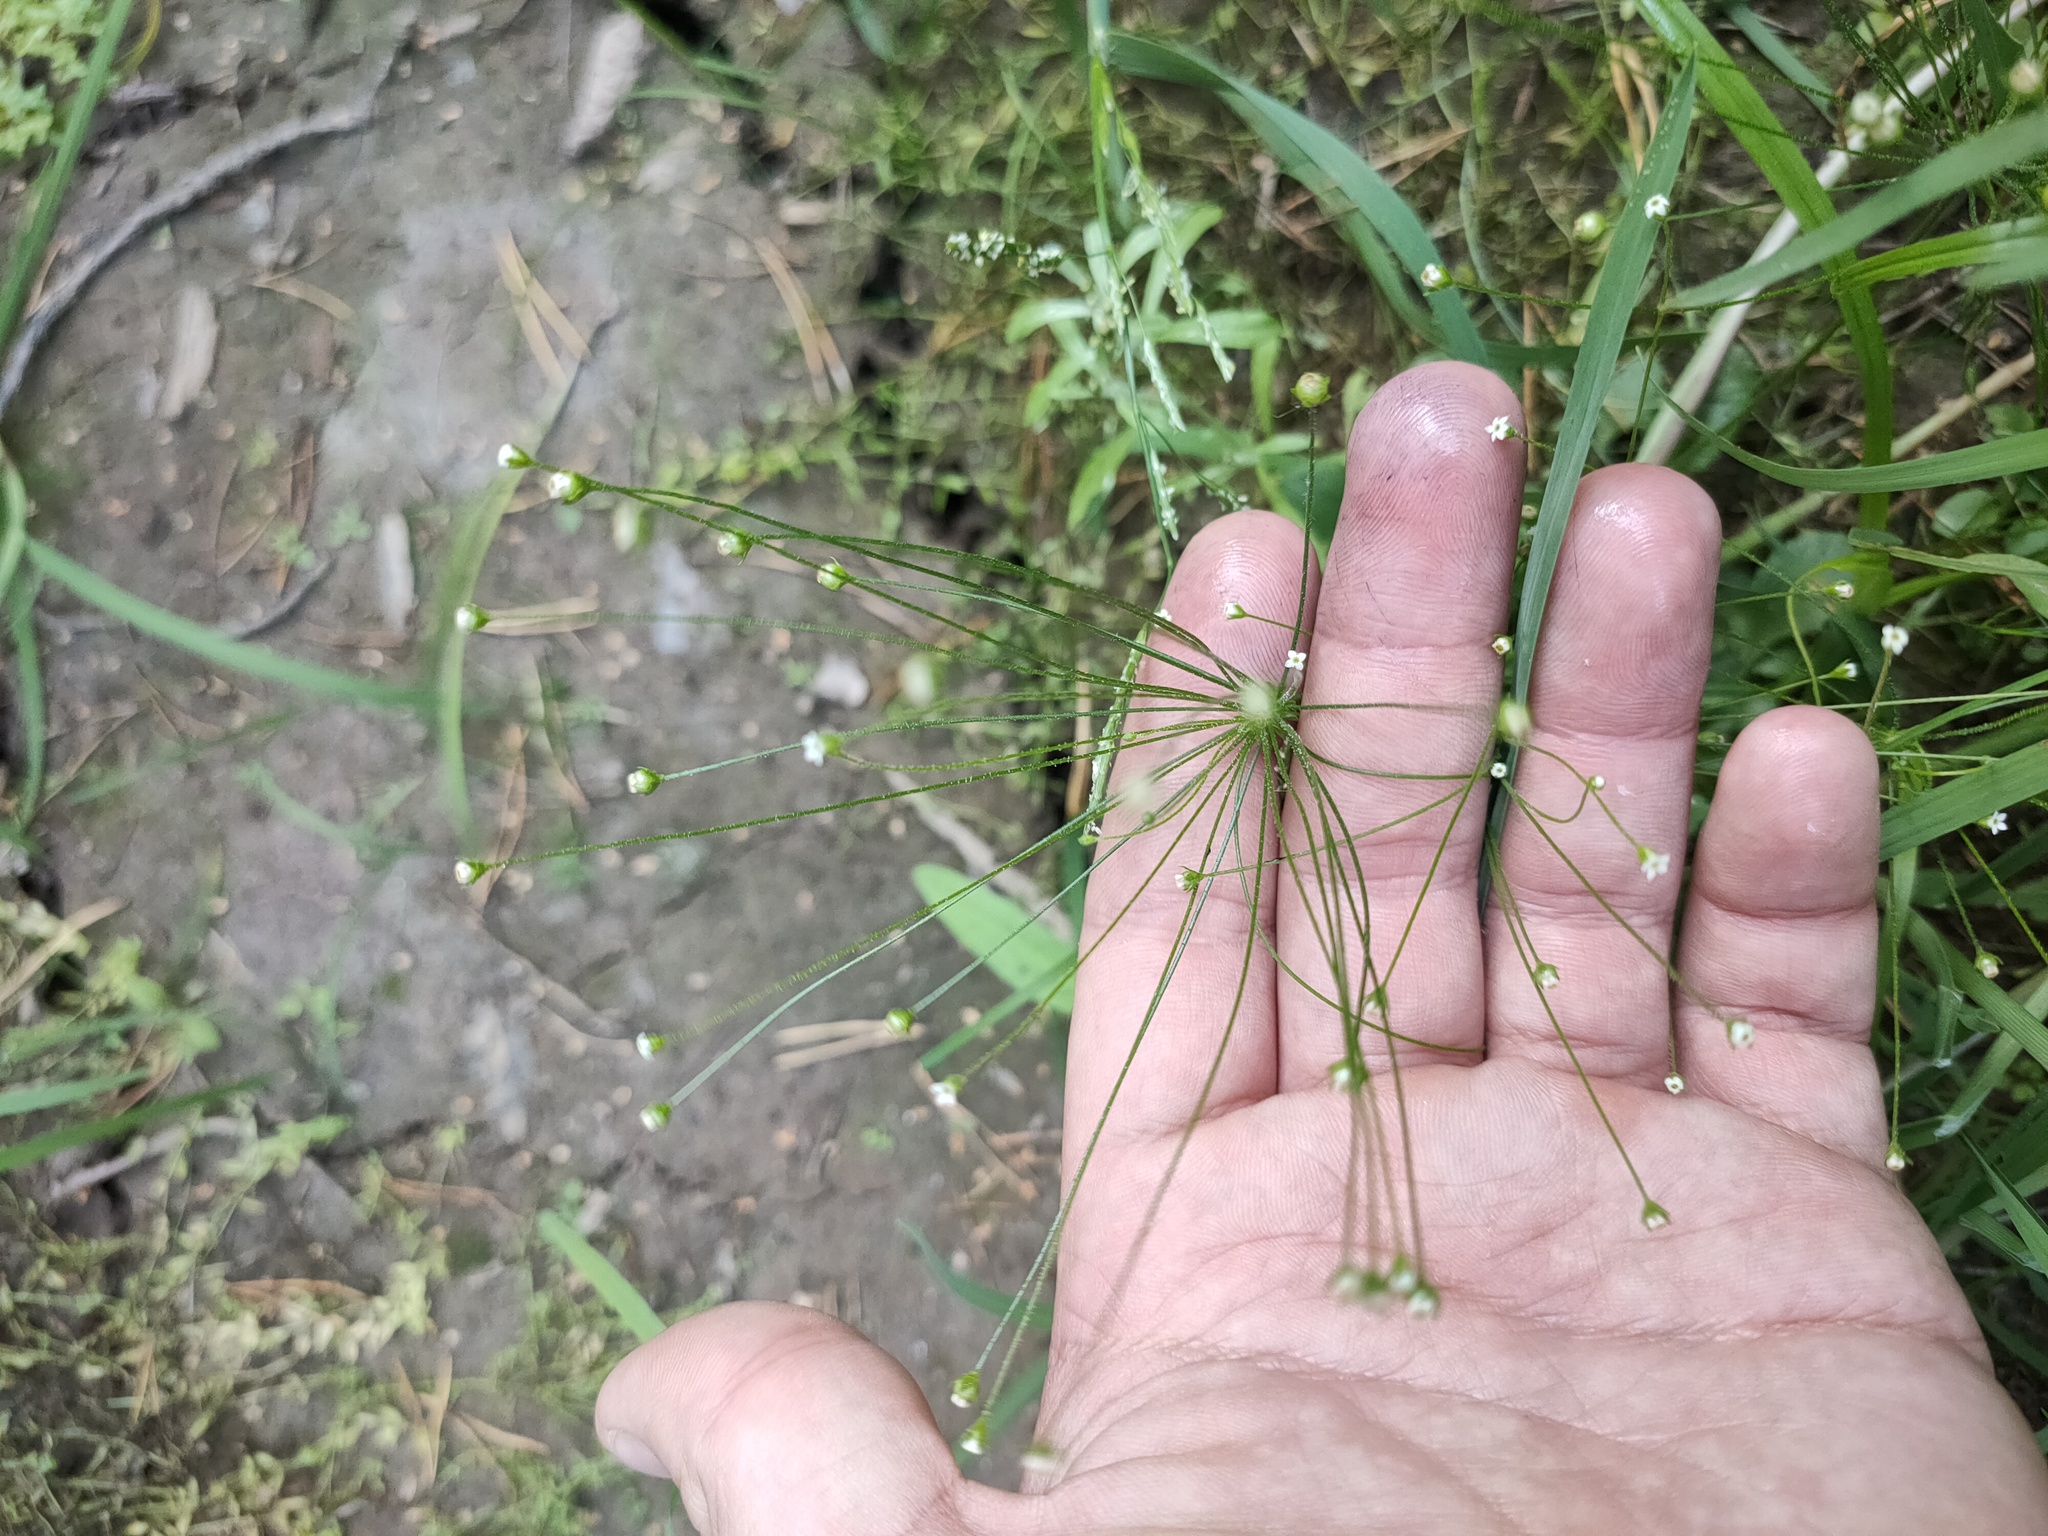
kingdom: Plantae
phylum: Tracheophyta
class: Magnoliopsida
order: Ericales
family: Primulaceae
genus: Androsace
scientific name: Androsace filiformis
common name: Filiform rock jasmine
